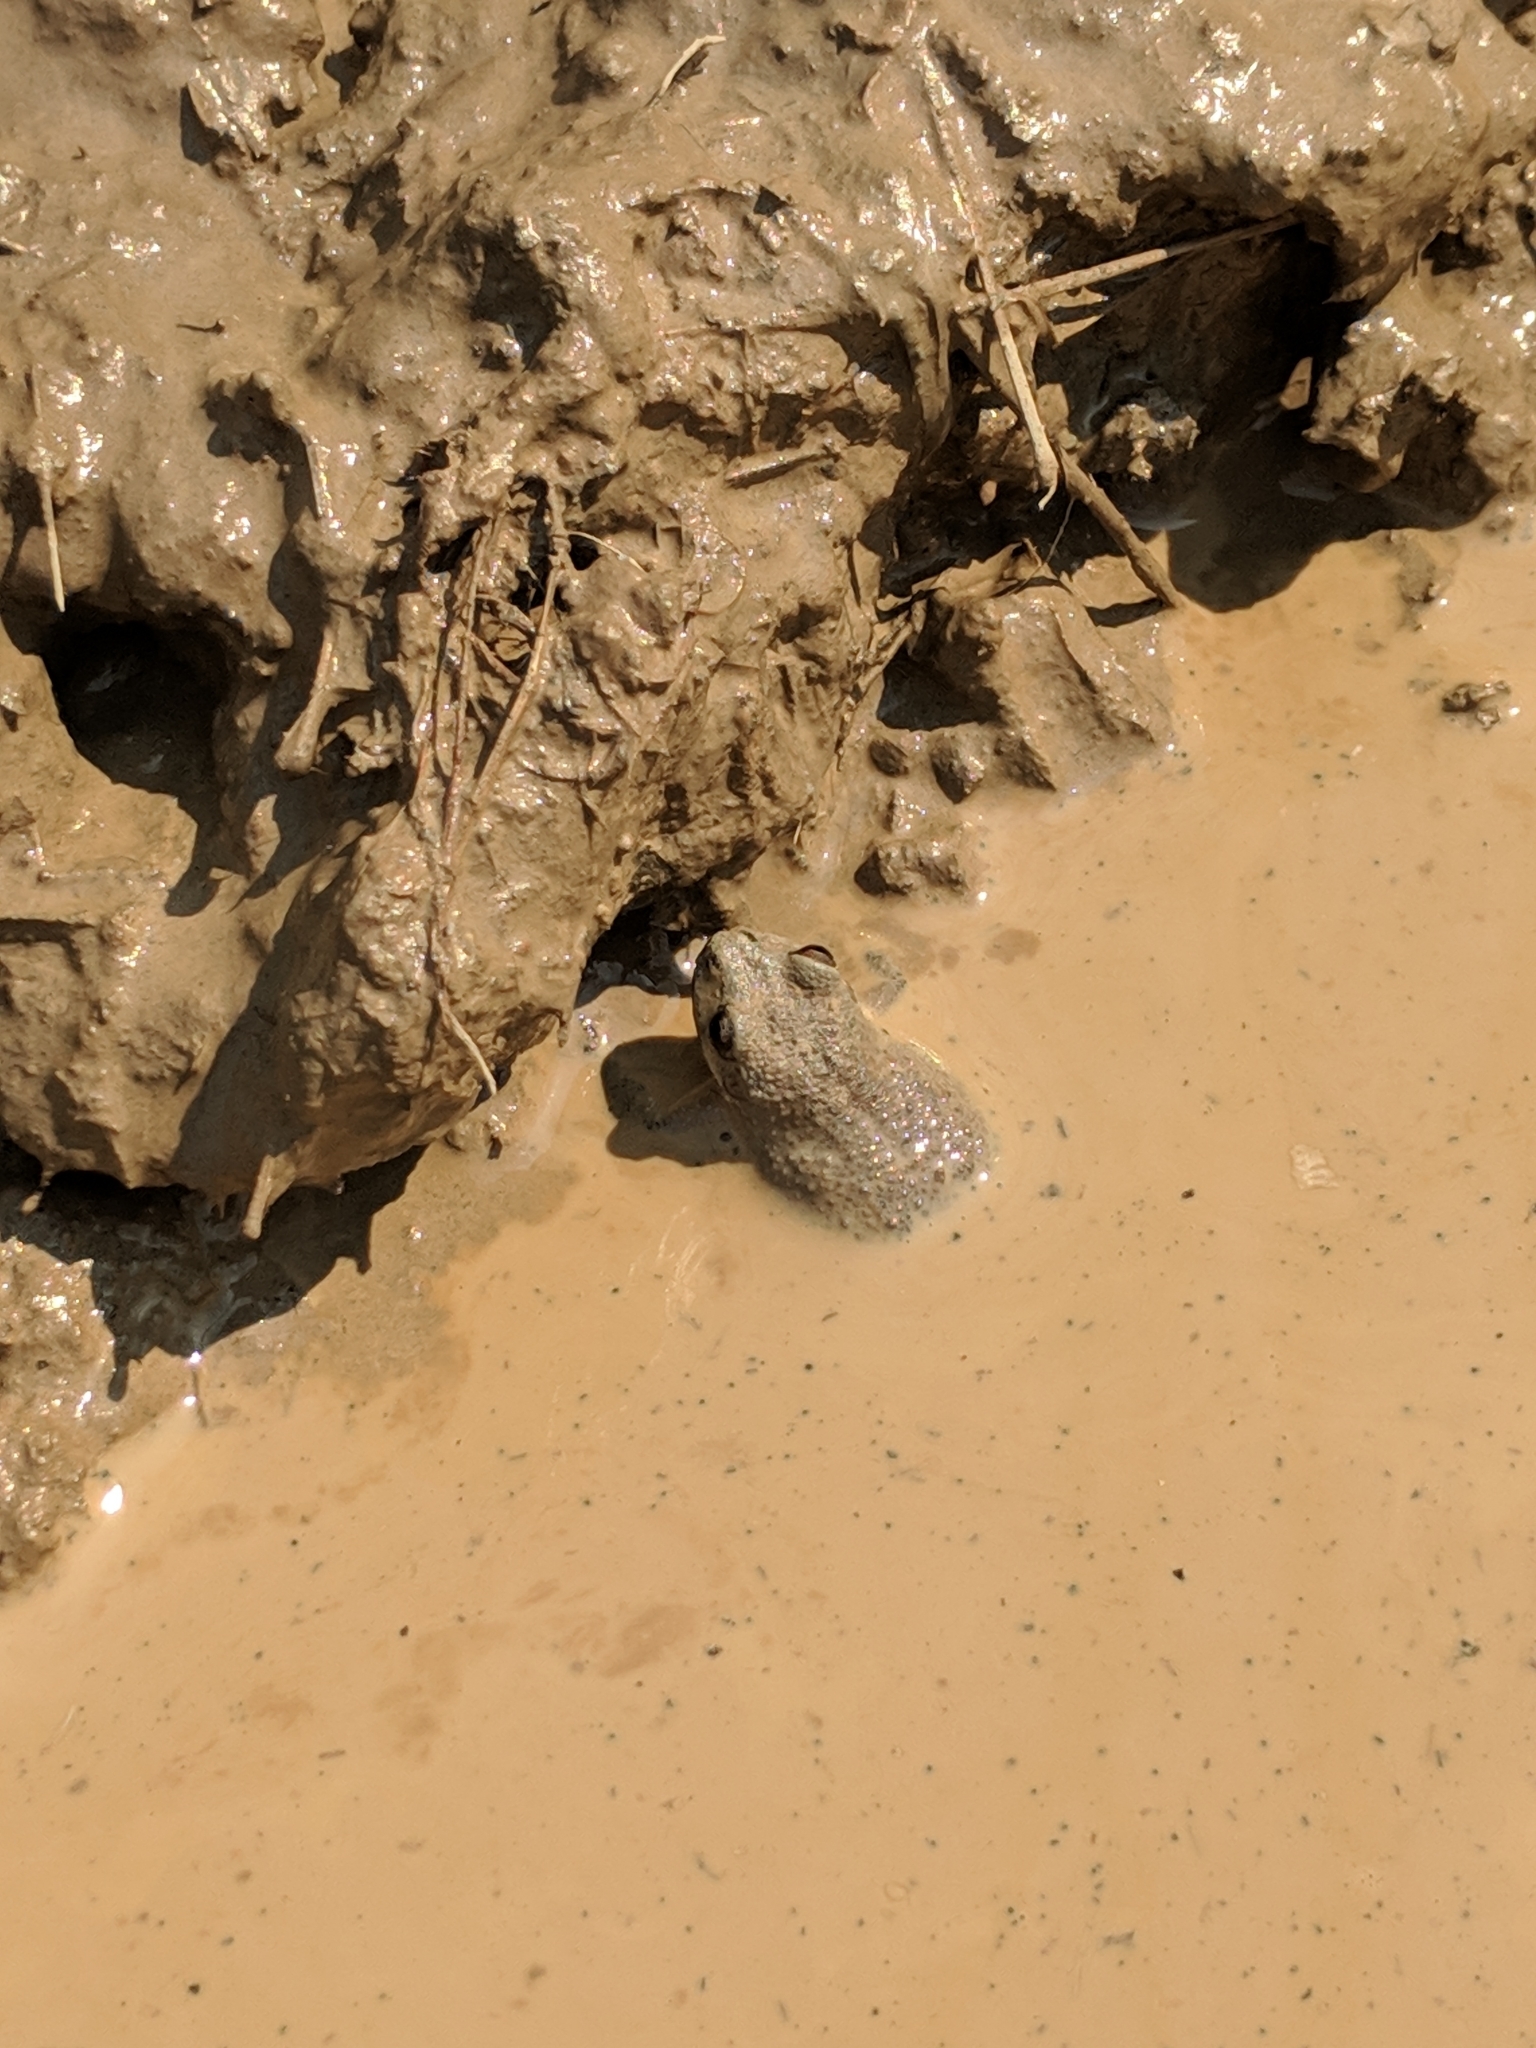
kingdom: Animalia
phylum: Chordata
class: Amphibia
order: Anura
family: Hylidae
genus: Pseudacris
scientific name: Pseudacris brachyphona
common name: Mountain chorus frog
